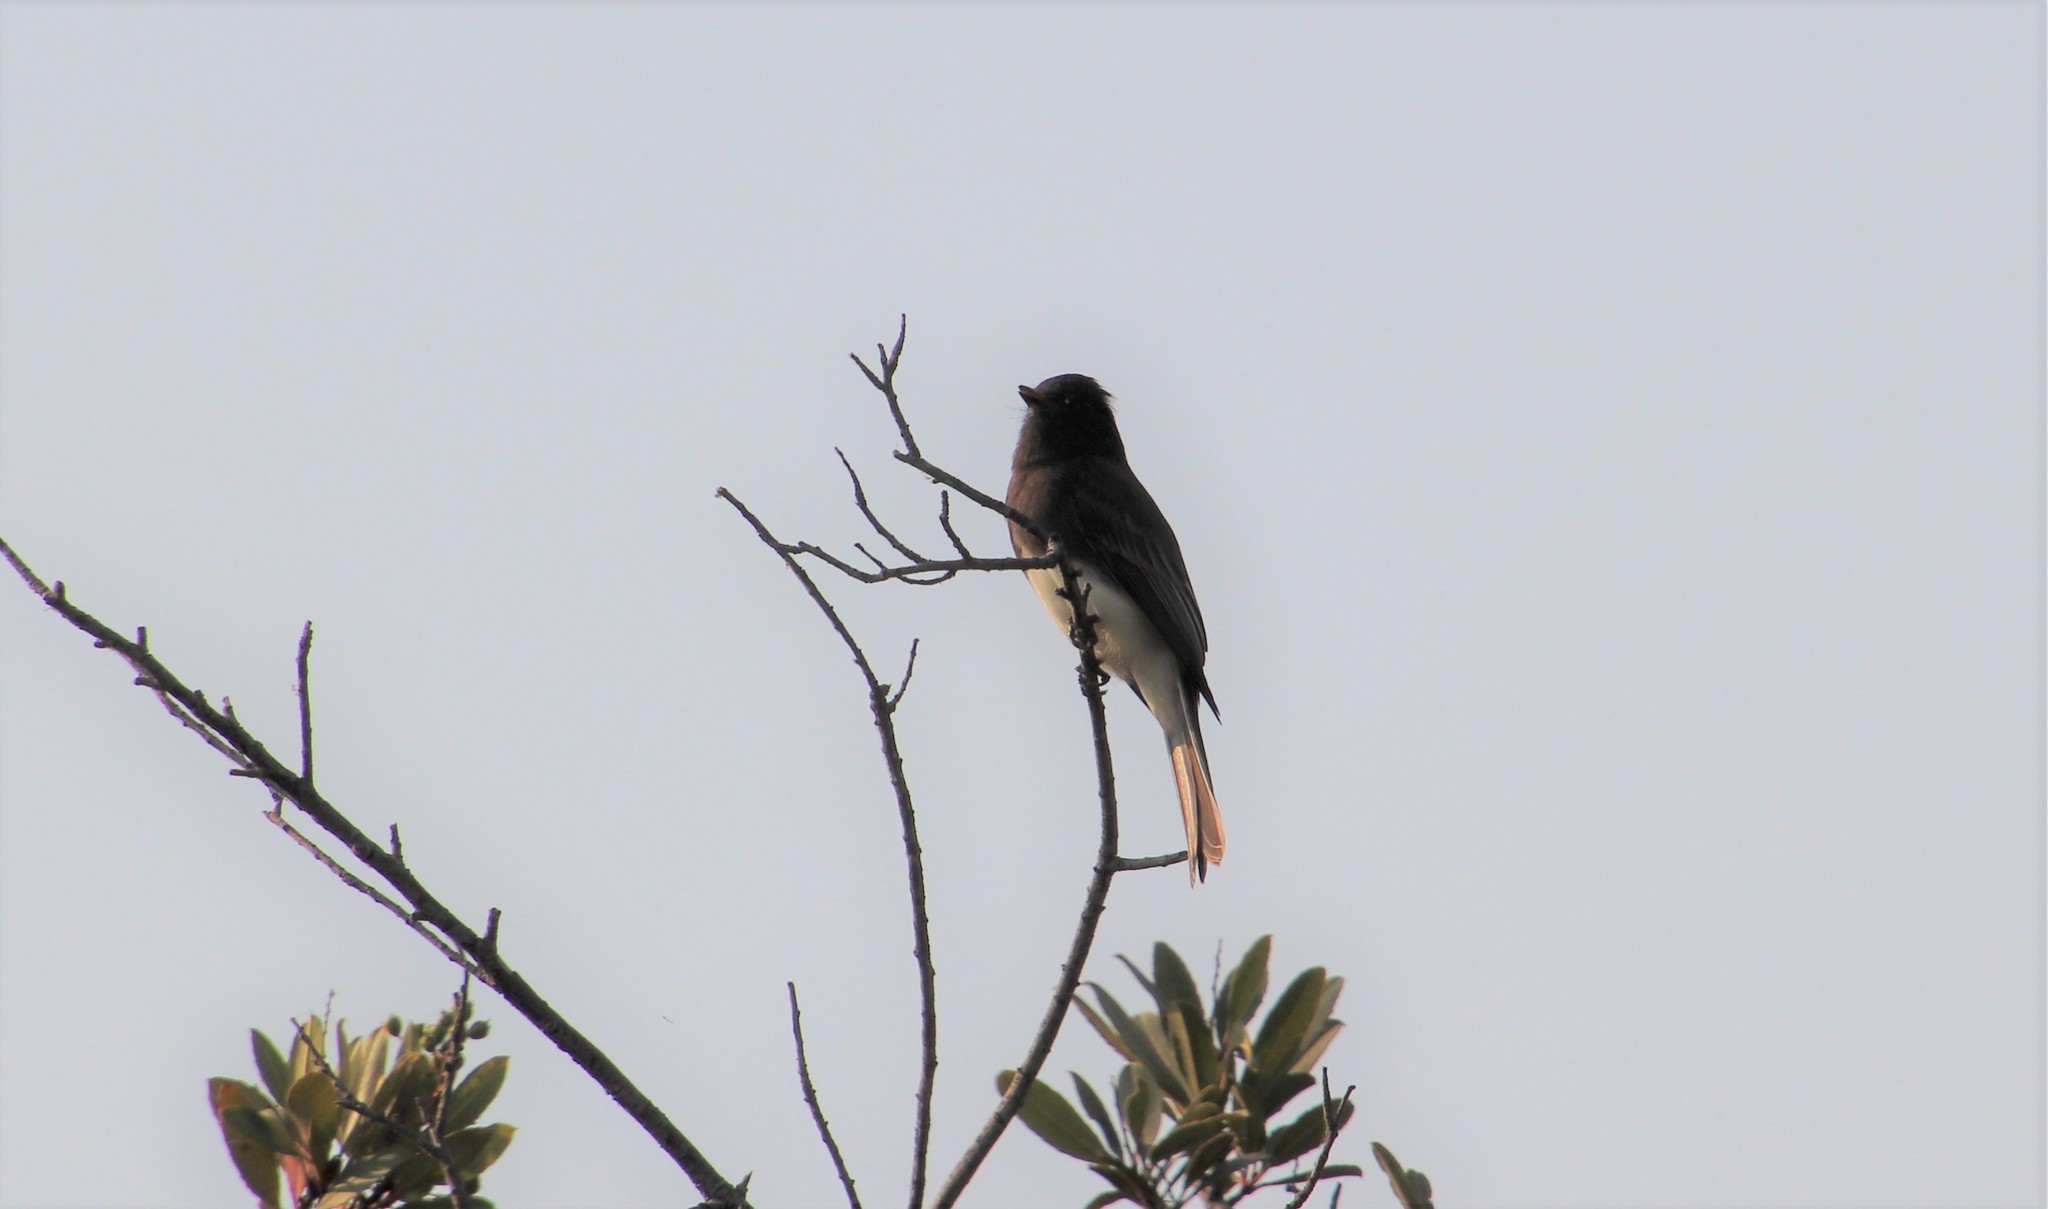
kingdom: Animalia
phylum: Chordata
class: Aves
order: Passeriformes
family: Tyrannidae
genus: Sayornis
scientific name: Sayornis nigricans
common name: Black phoebe
